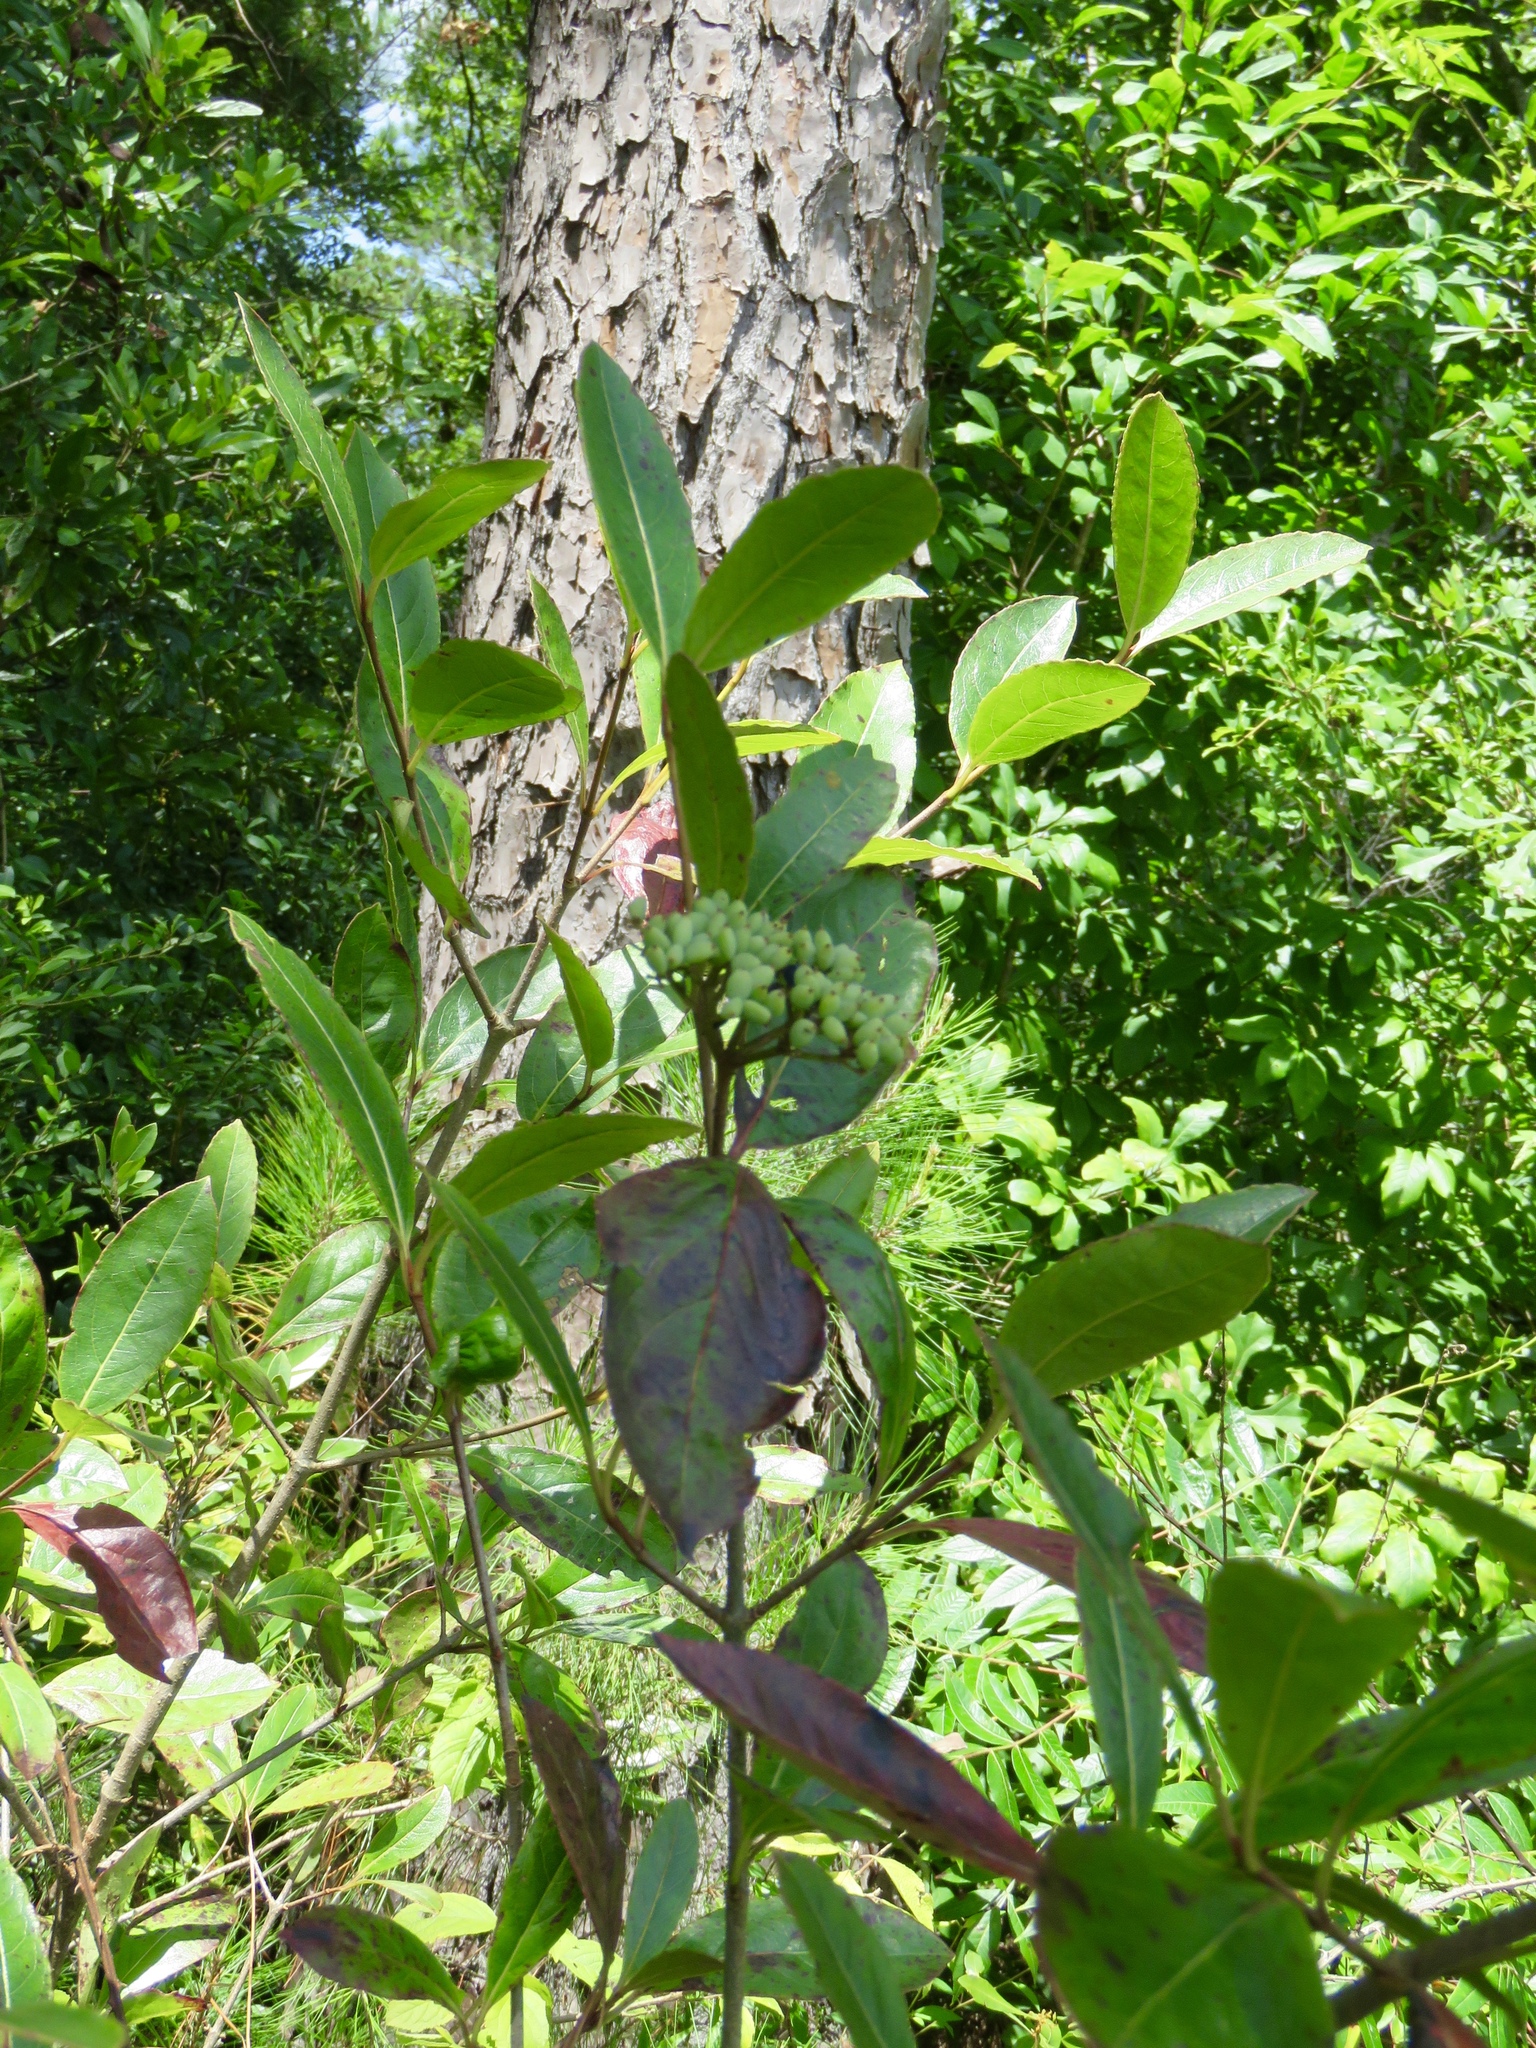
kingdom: Plantae
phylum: Tracheophyta
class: Magnoliopsida
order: Dipsacales
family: Viburnaceae
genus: Viburnum
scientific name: Viburnum nudum
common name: Possum haw
